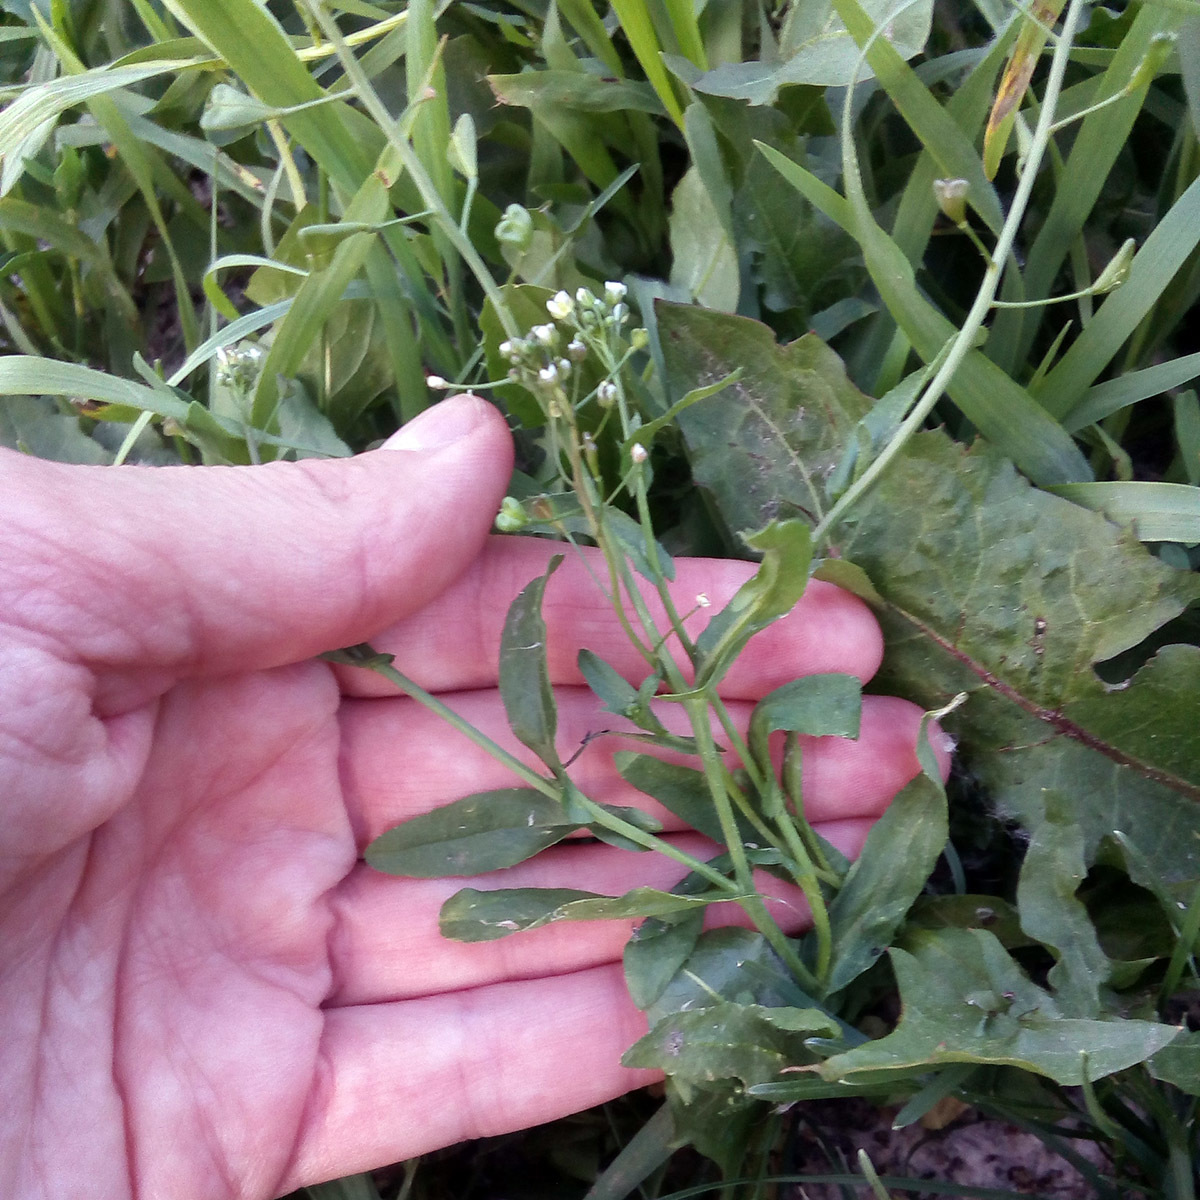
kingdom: Plantae
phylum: Tracheophyta
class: Magnoliopsida
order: Brassicales
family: Brassicaceae
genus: Capsella
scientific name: Capsella bursa-pastoris
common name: Shepherd's purse
